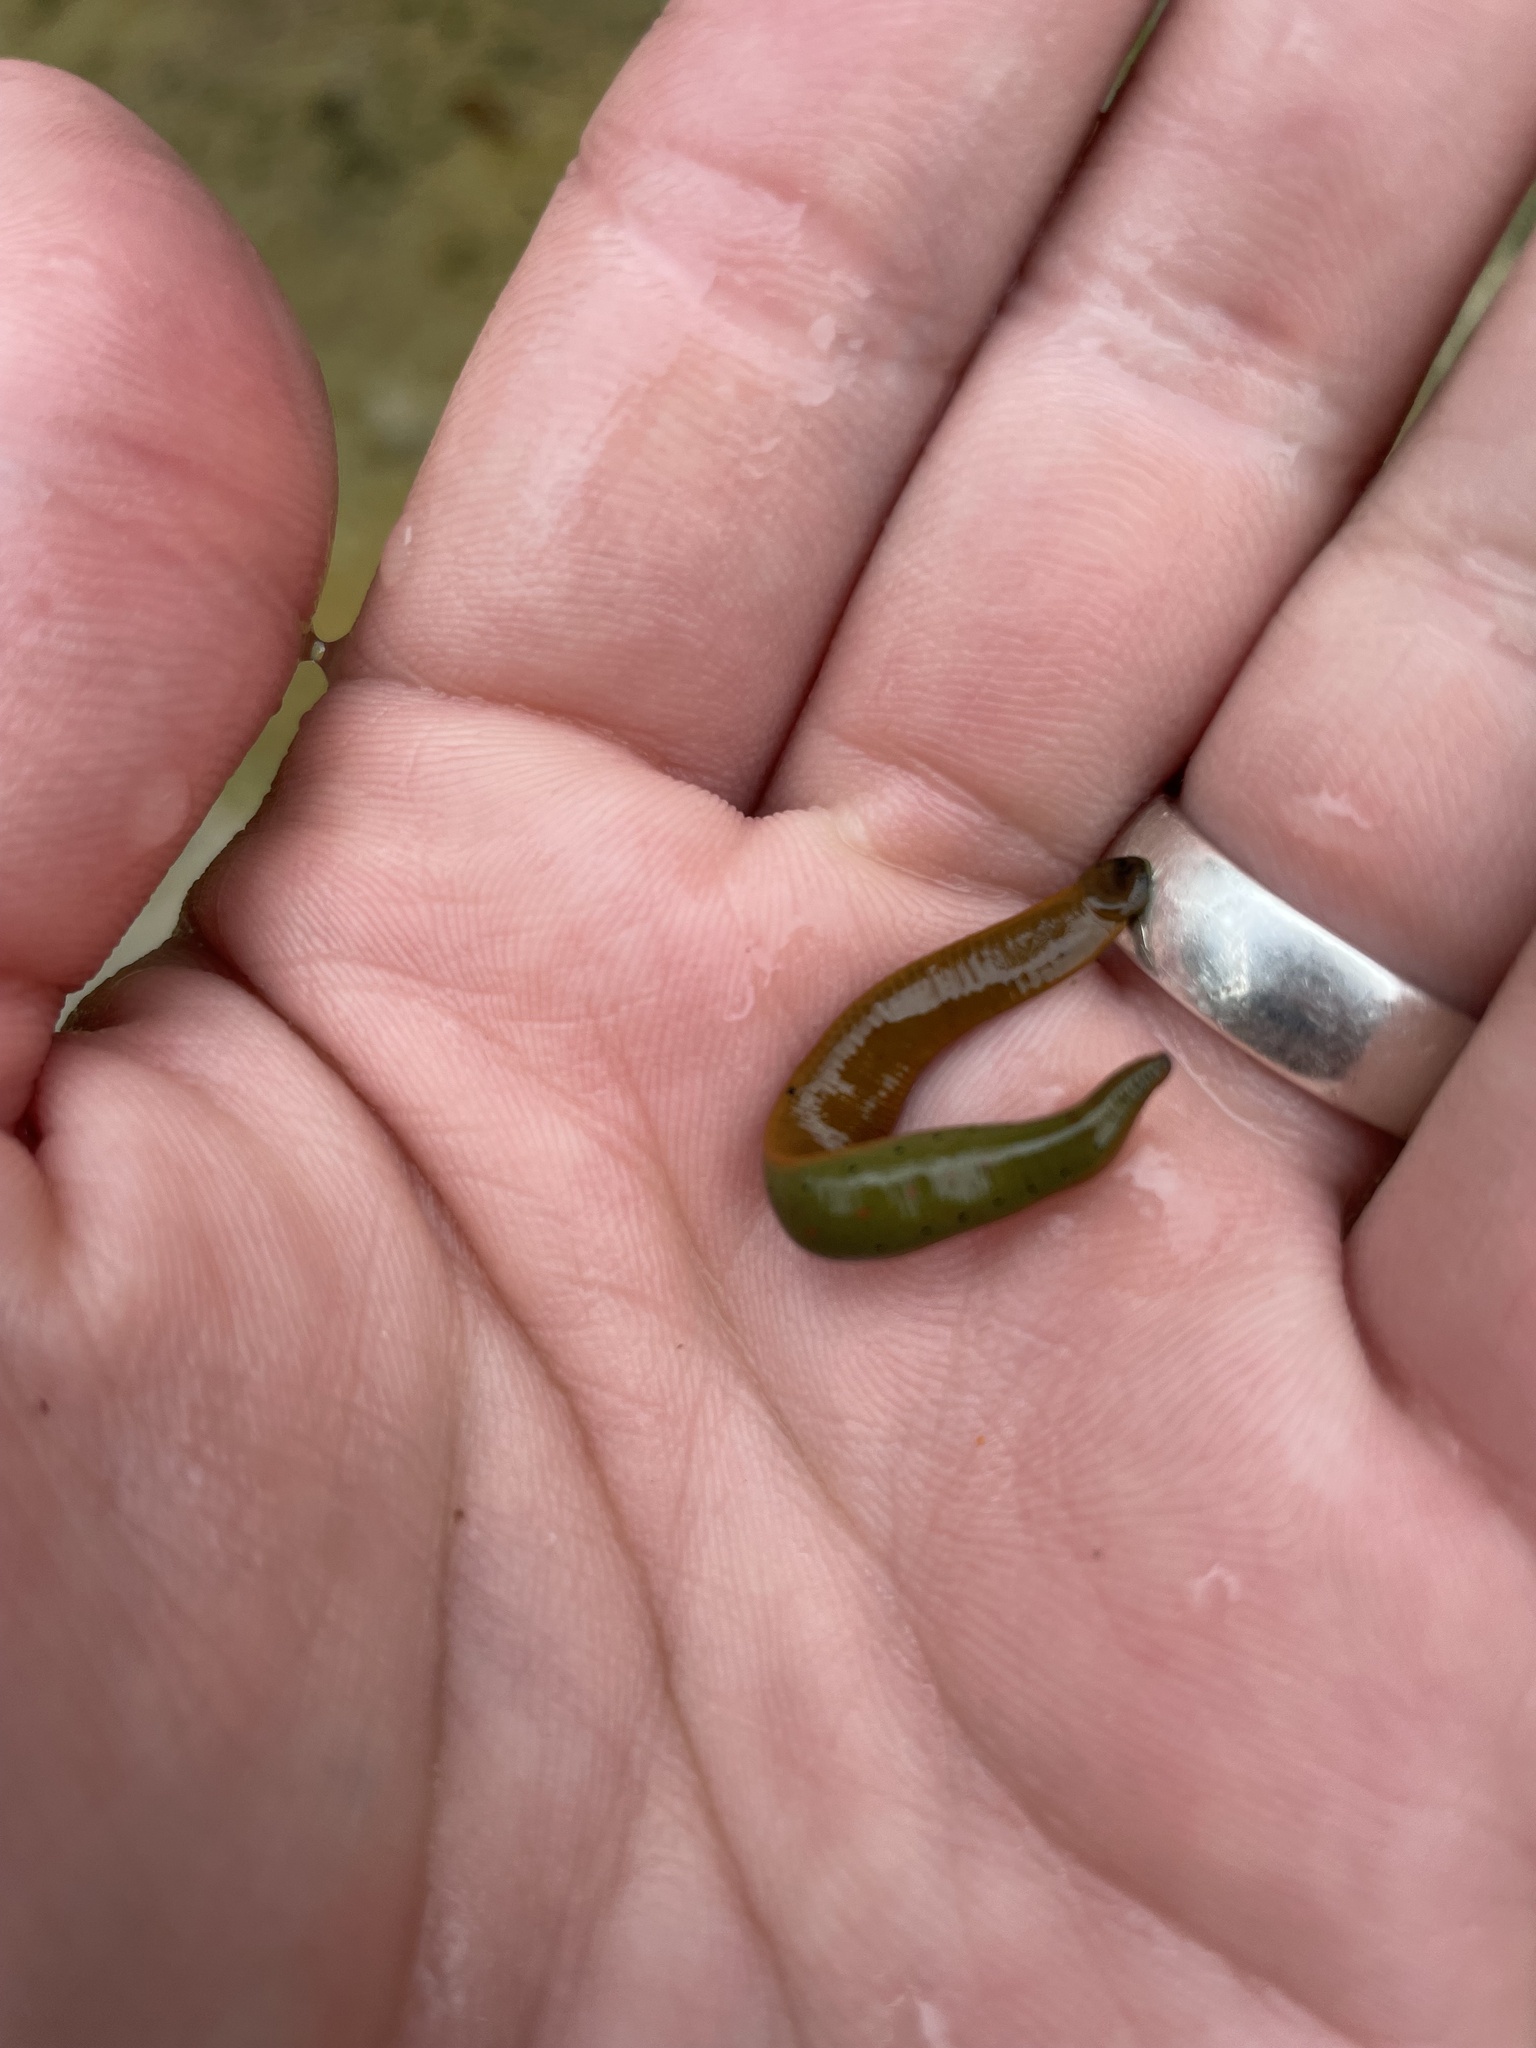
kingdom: Animalia
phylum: Annelida
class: Clitellata
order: Arhynchobdellida
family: Hirudinidae
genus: Macrobdella
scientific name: Macrobdella decora
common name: North american leech
